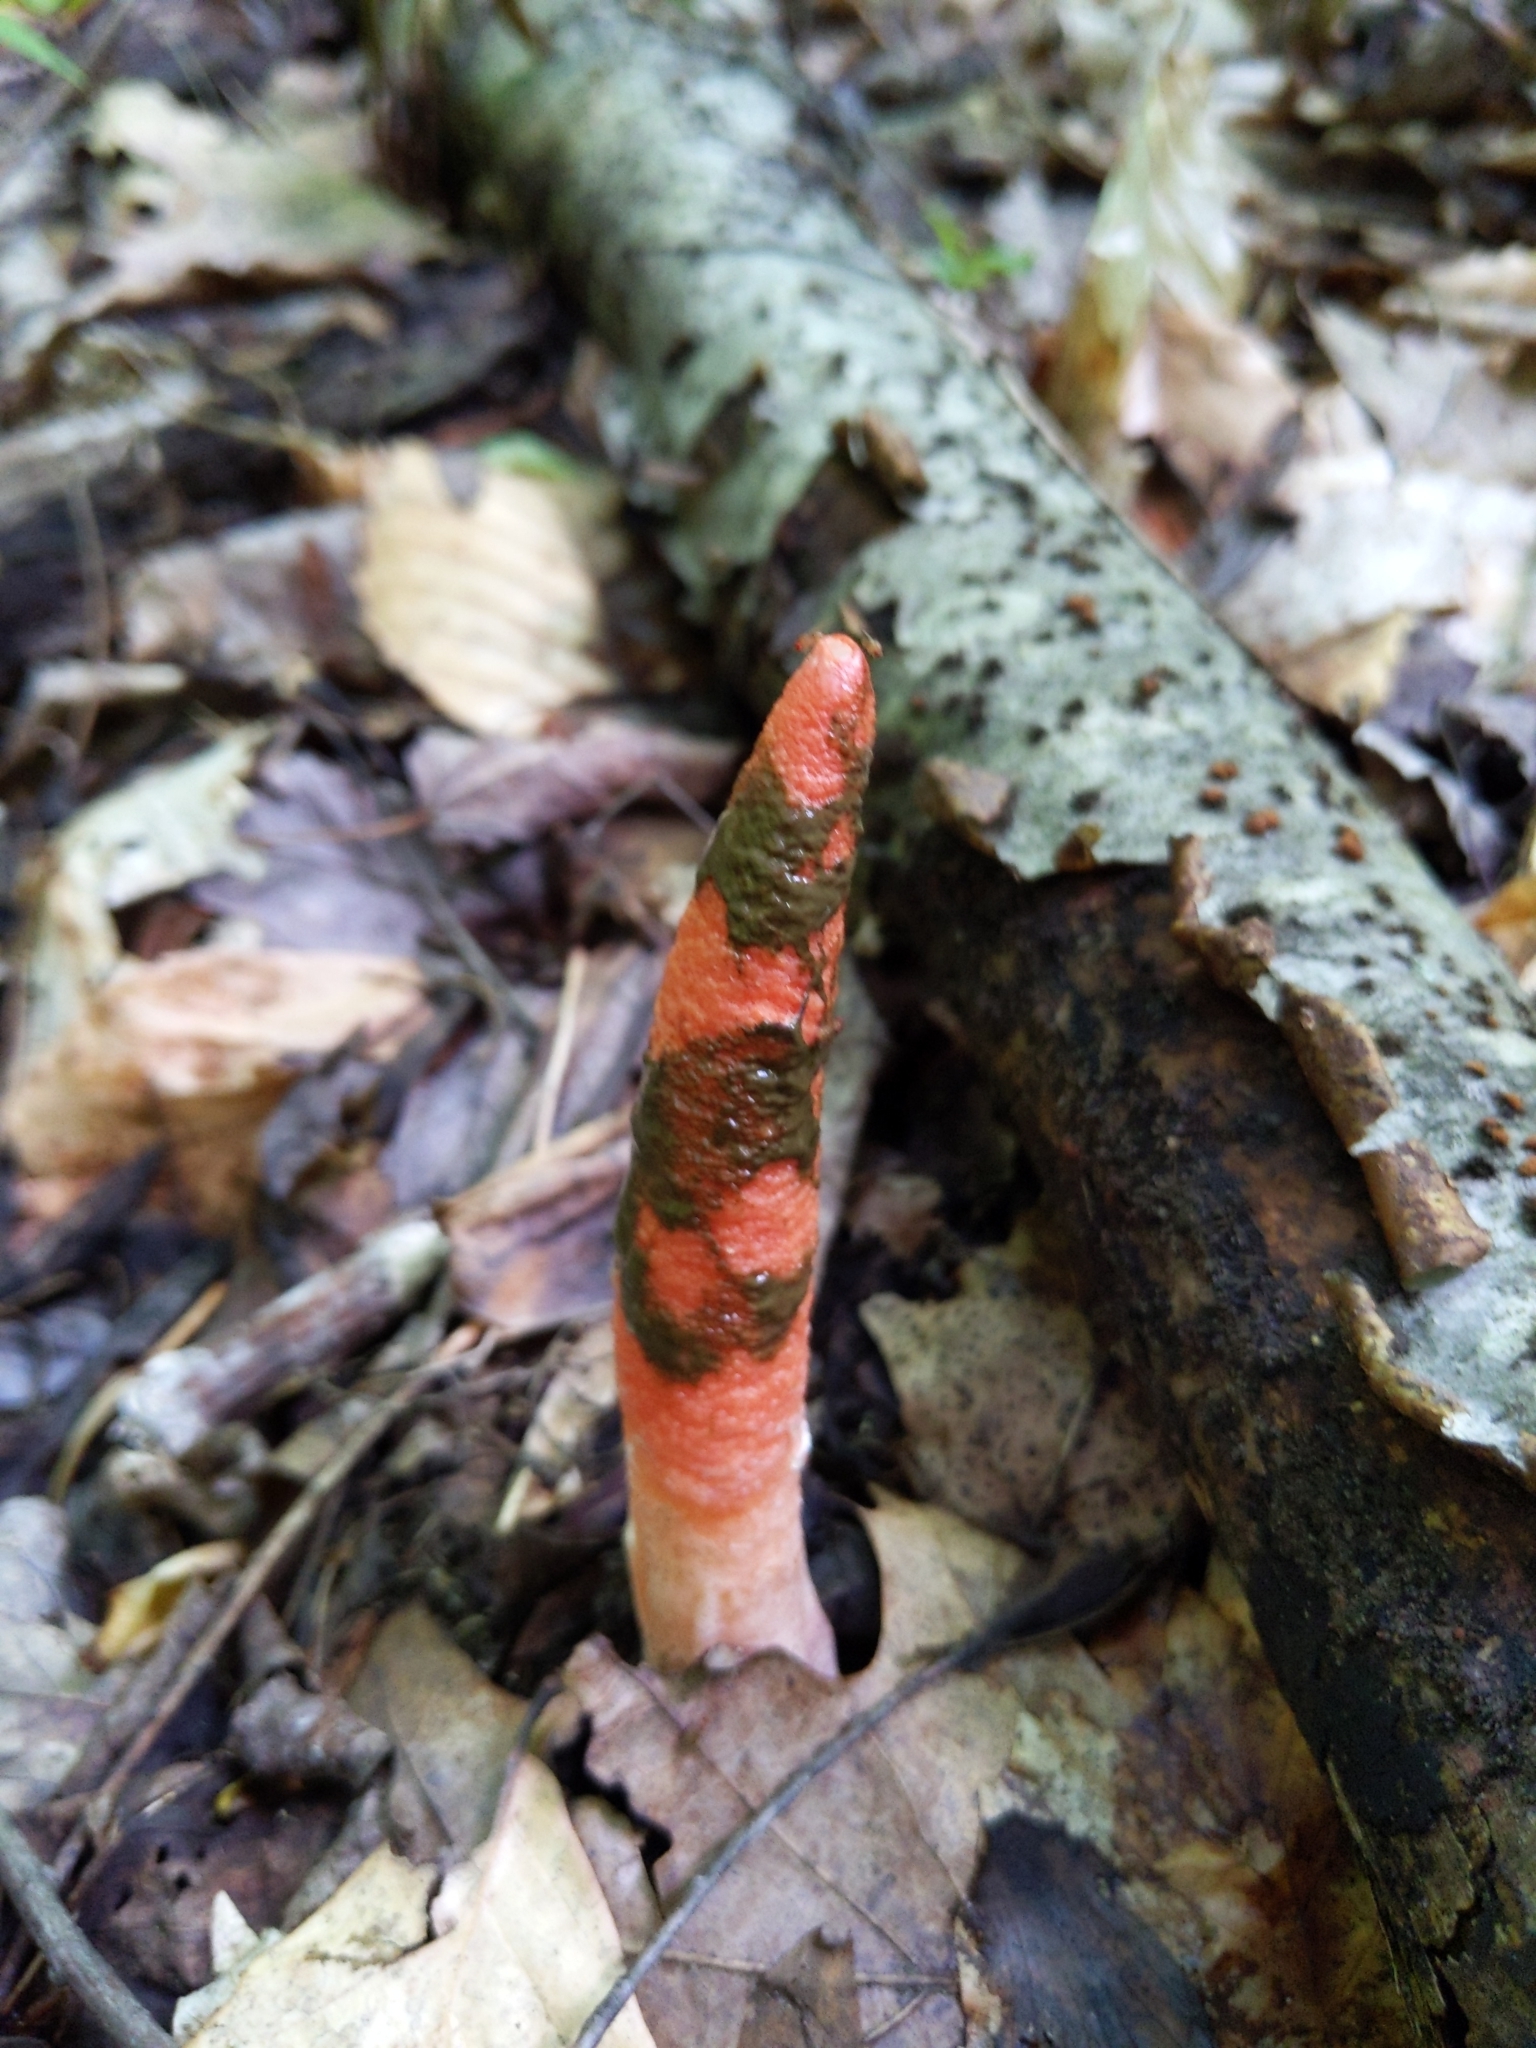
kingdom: Fungi
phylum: Basidiomycota
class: Agaricomycetes
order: Phallales
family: Phallaceae
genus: Mutinus
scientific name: Mutinus elegans
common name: Devil's dipstick
